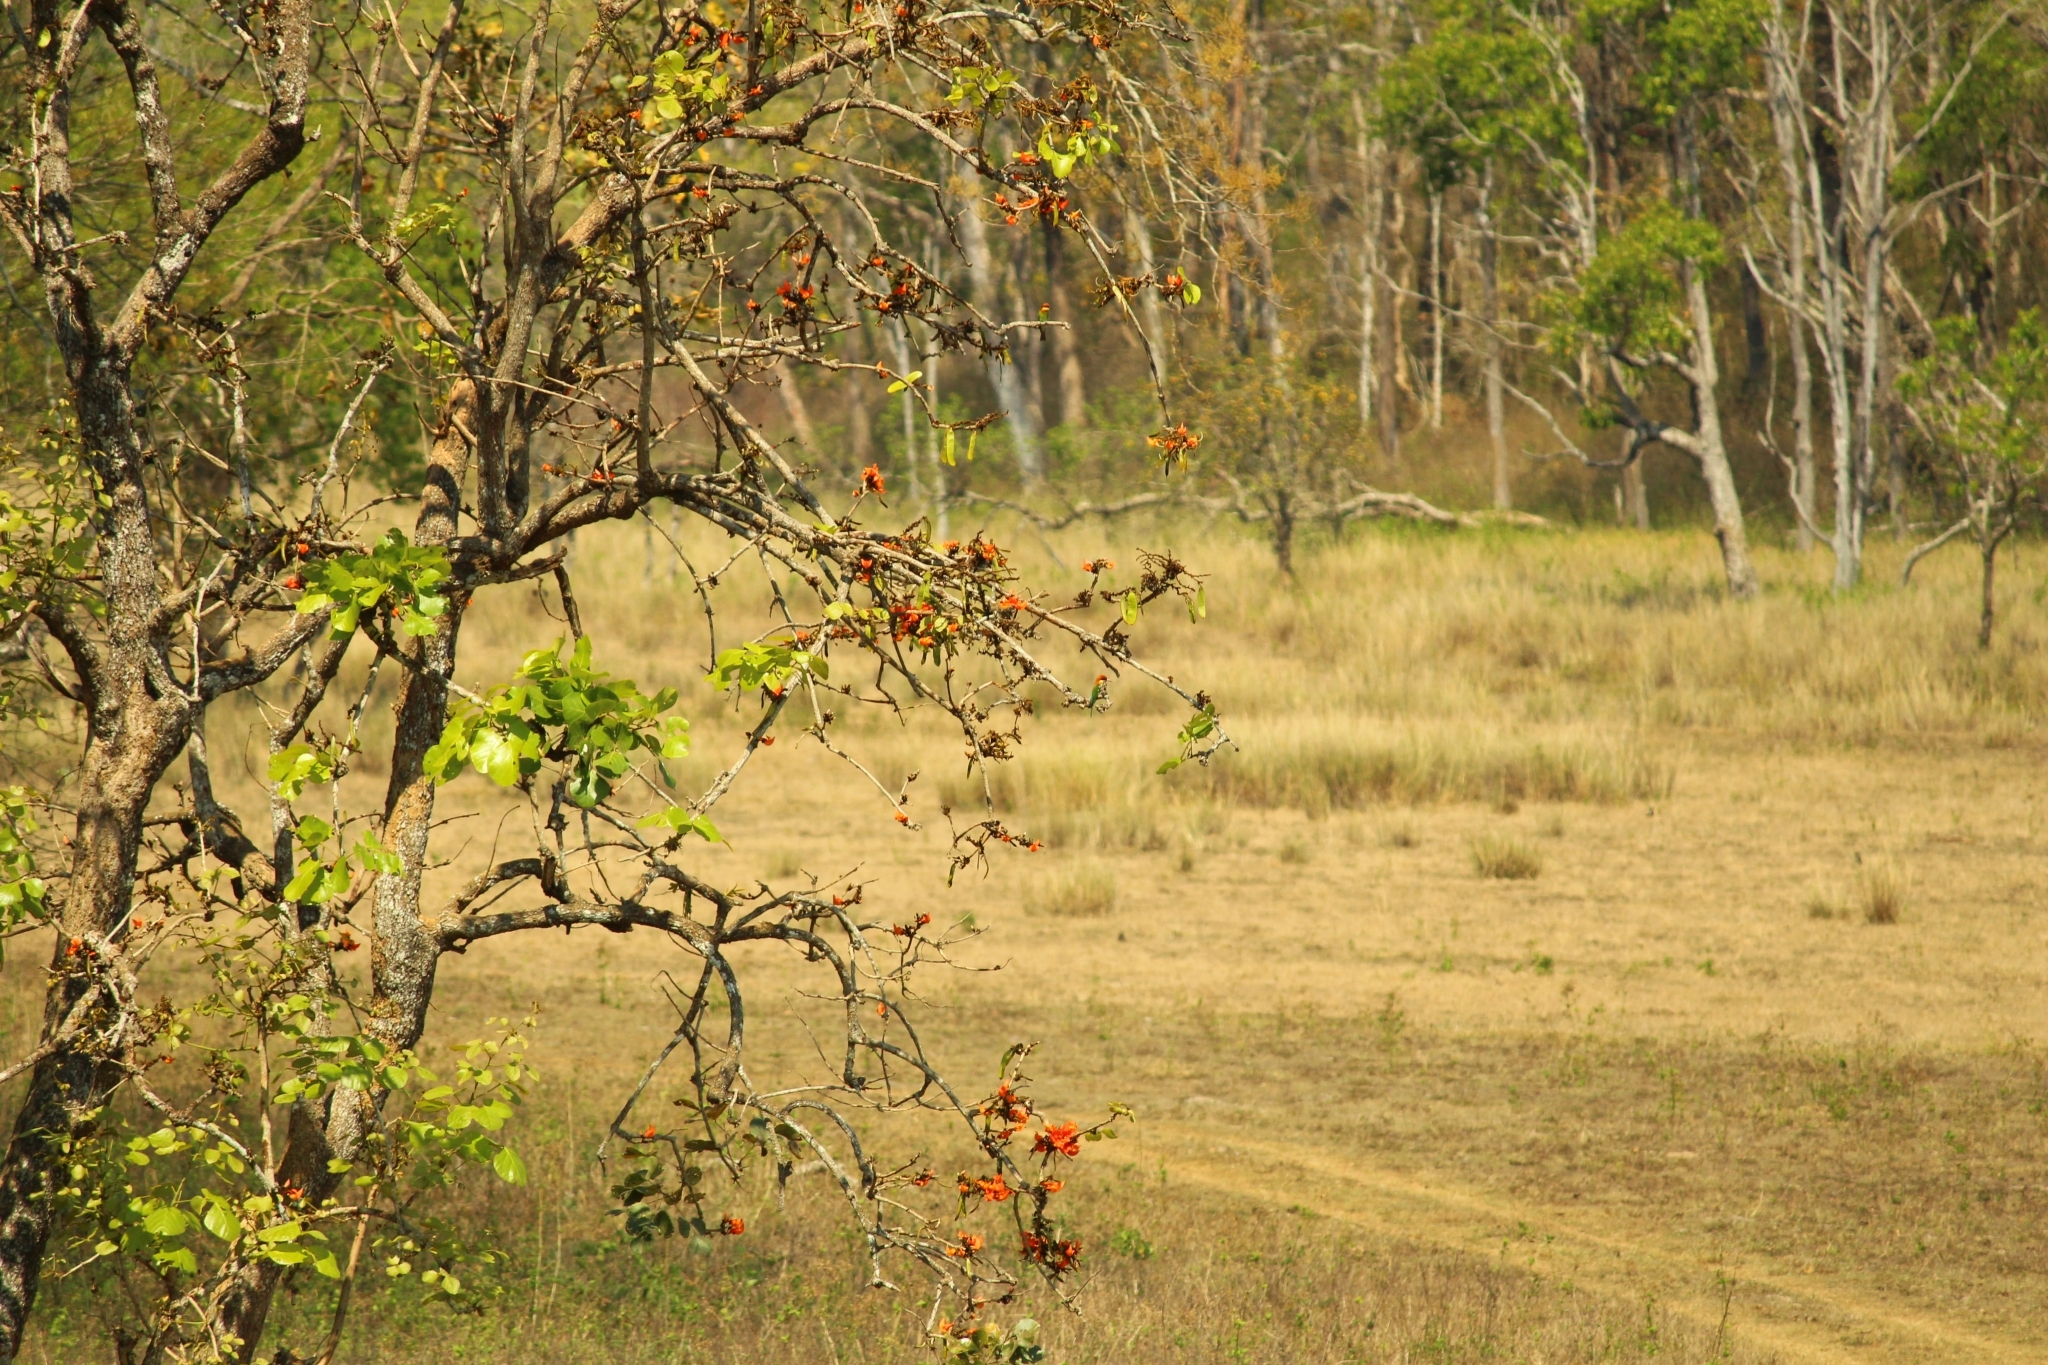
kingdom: Animalia
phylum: Chordata
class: Aves
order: Coraciiformes
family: Meropidae
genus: Merops
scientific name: Merops leschenaulti
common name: Chestnut-headed bee-eater
